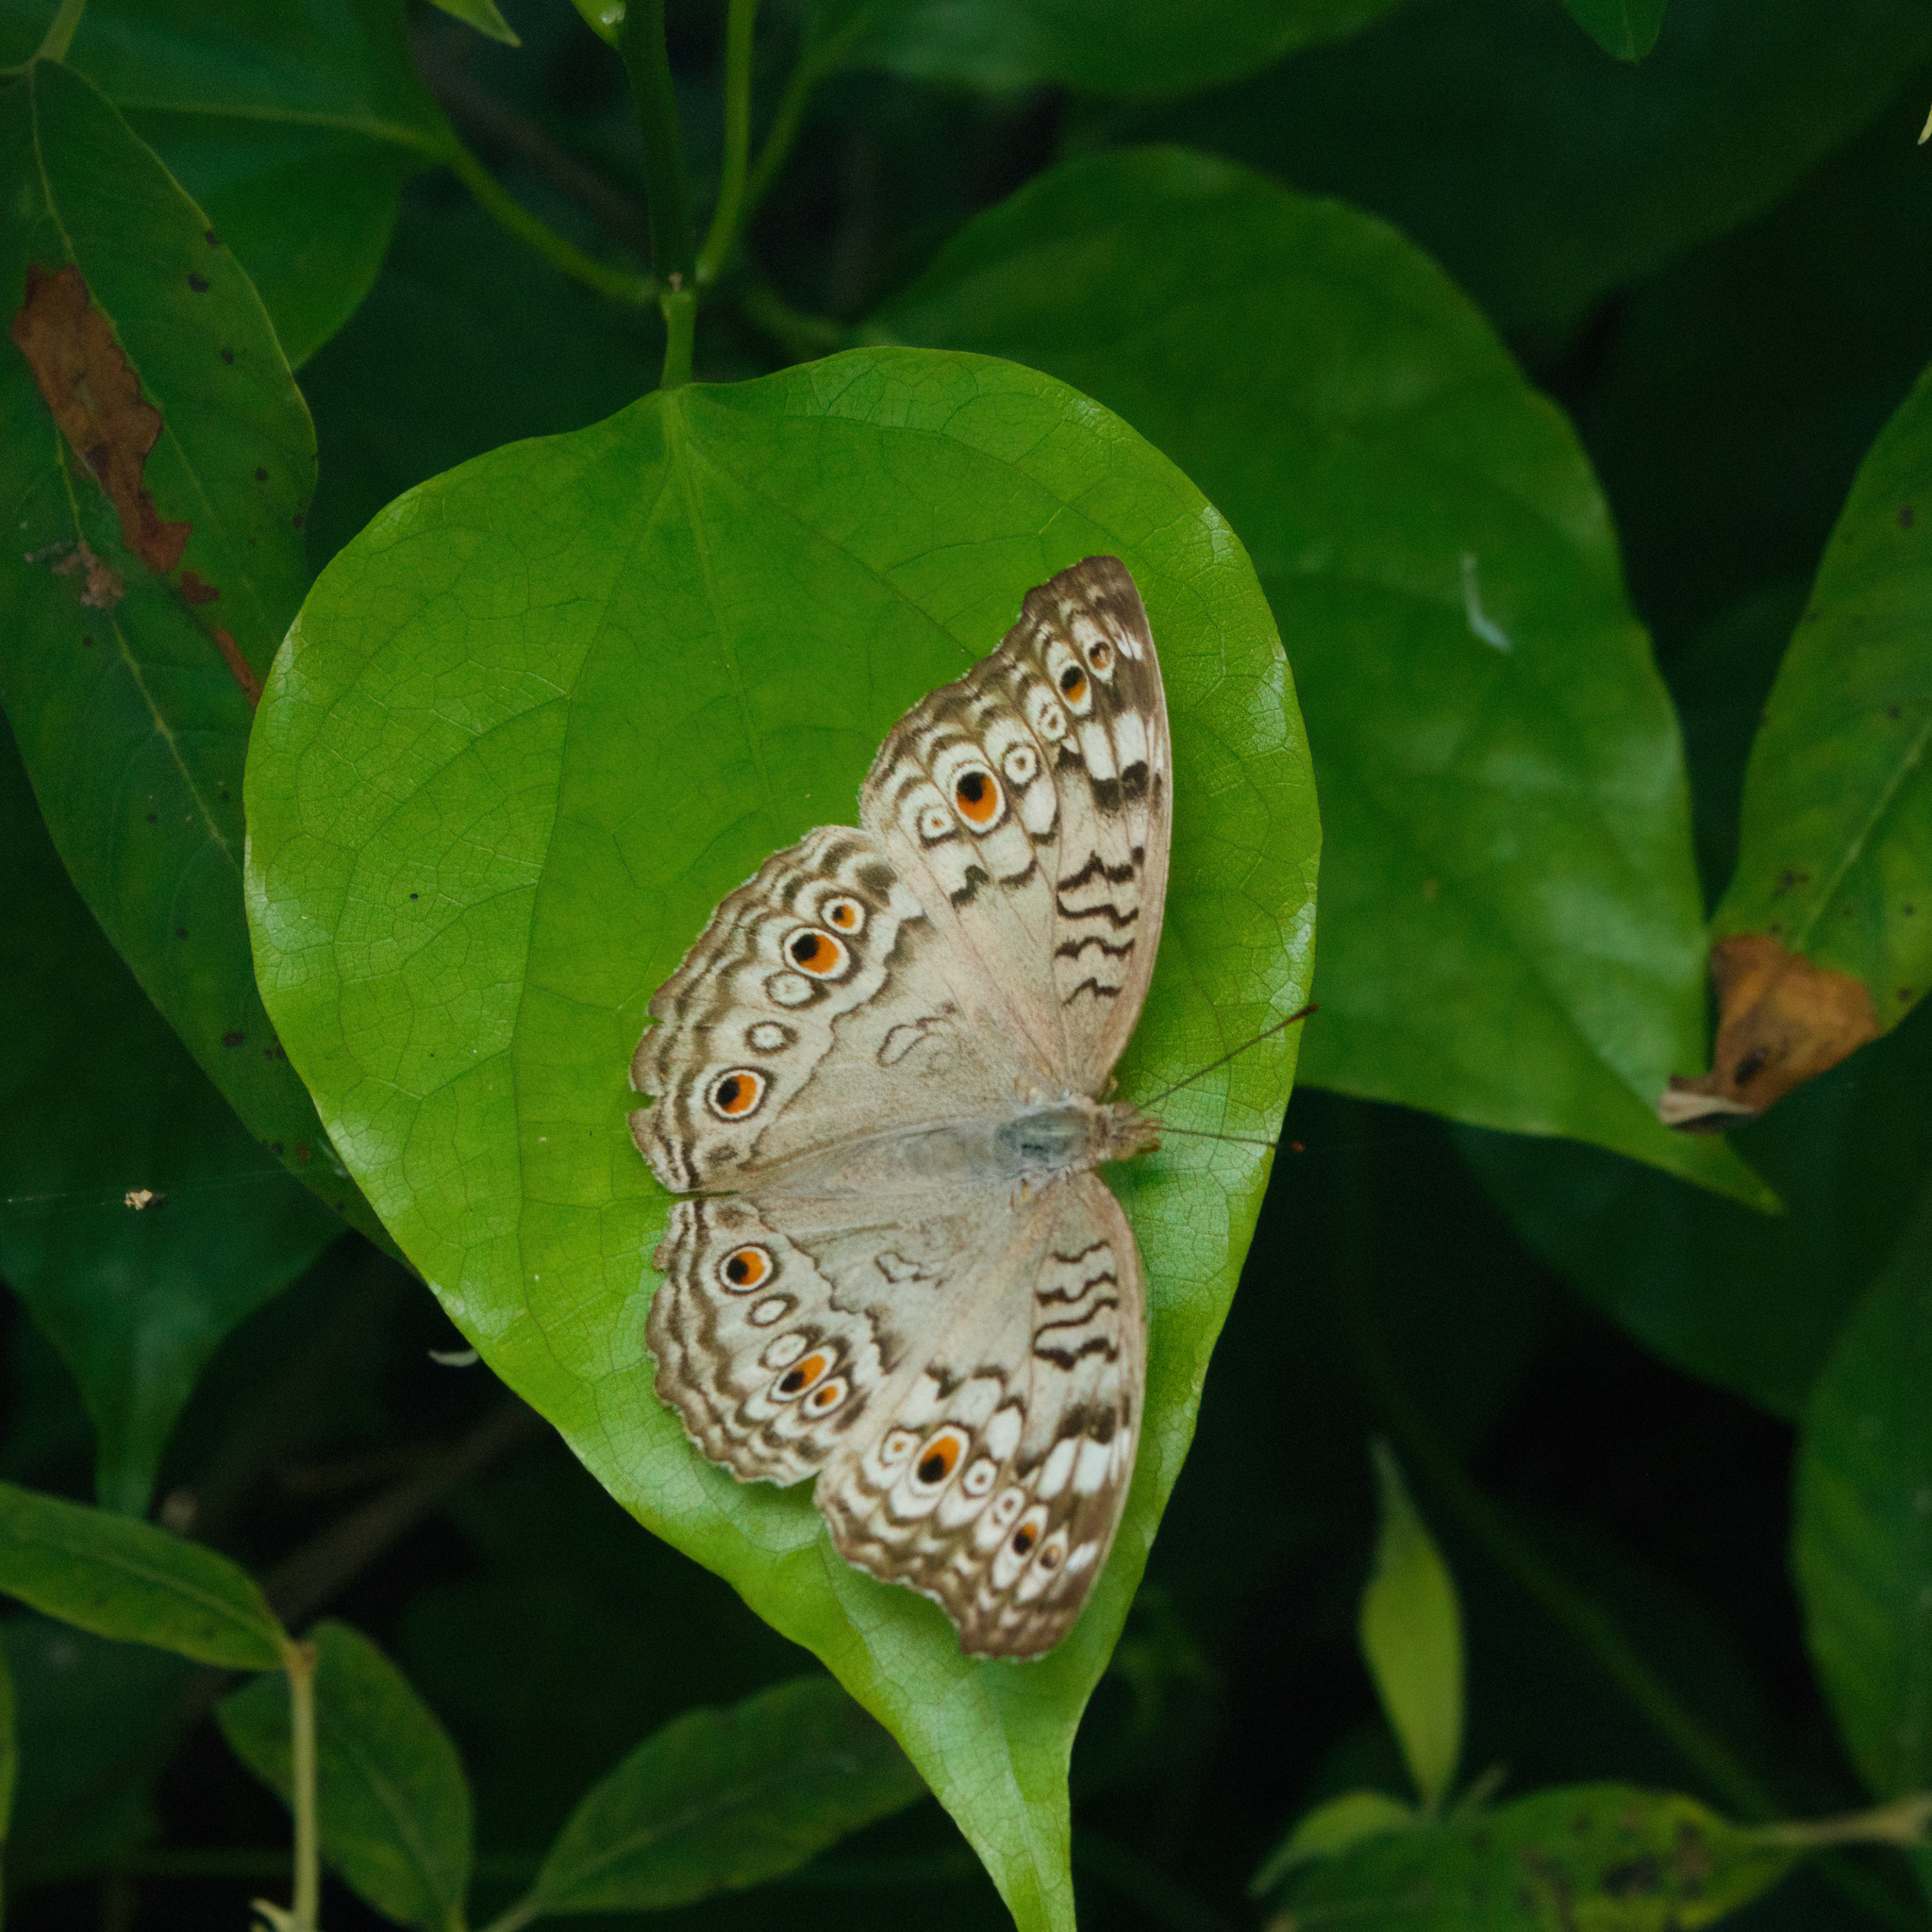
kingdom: Animalia
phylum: Arthropoda
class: Insecta
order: Lepidoptera
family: Nymphalidae
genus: Junonia
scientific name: Junonia atlites
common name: Grey pansy
